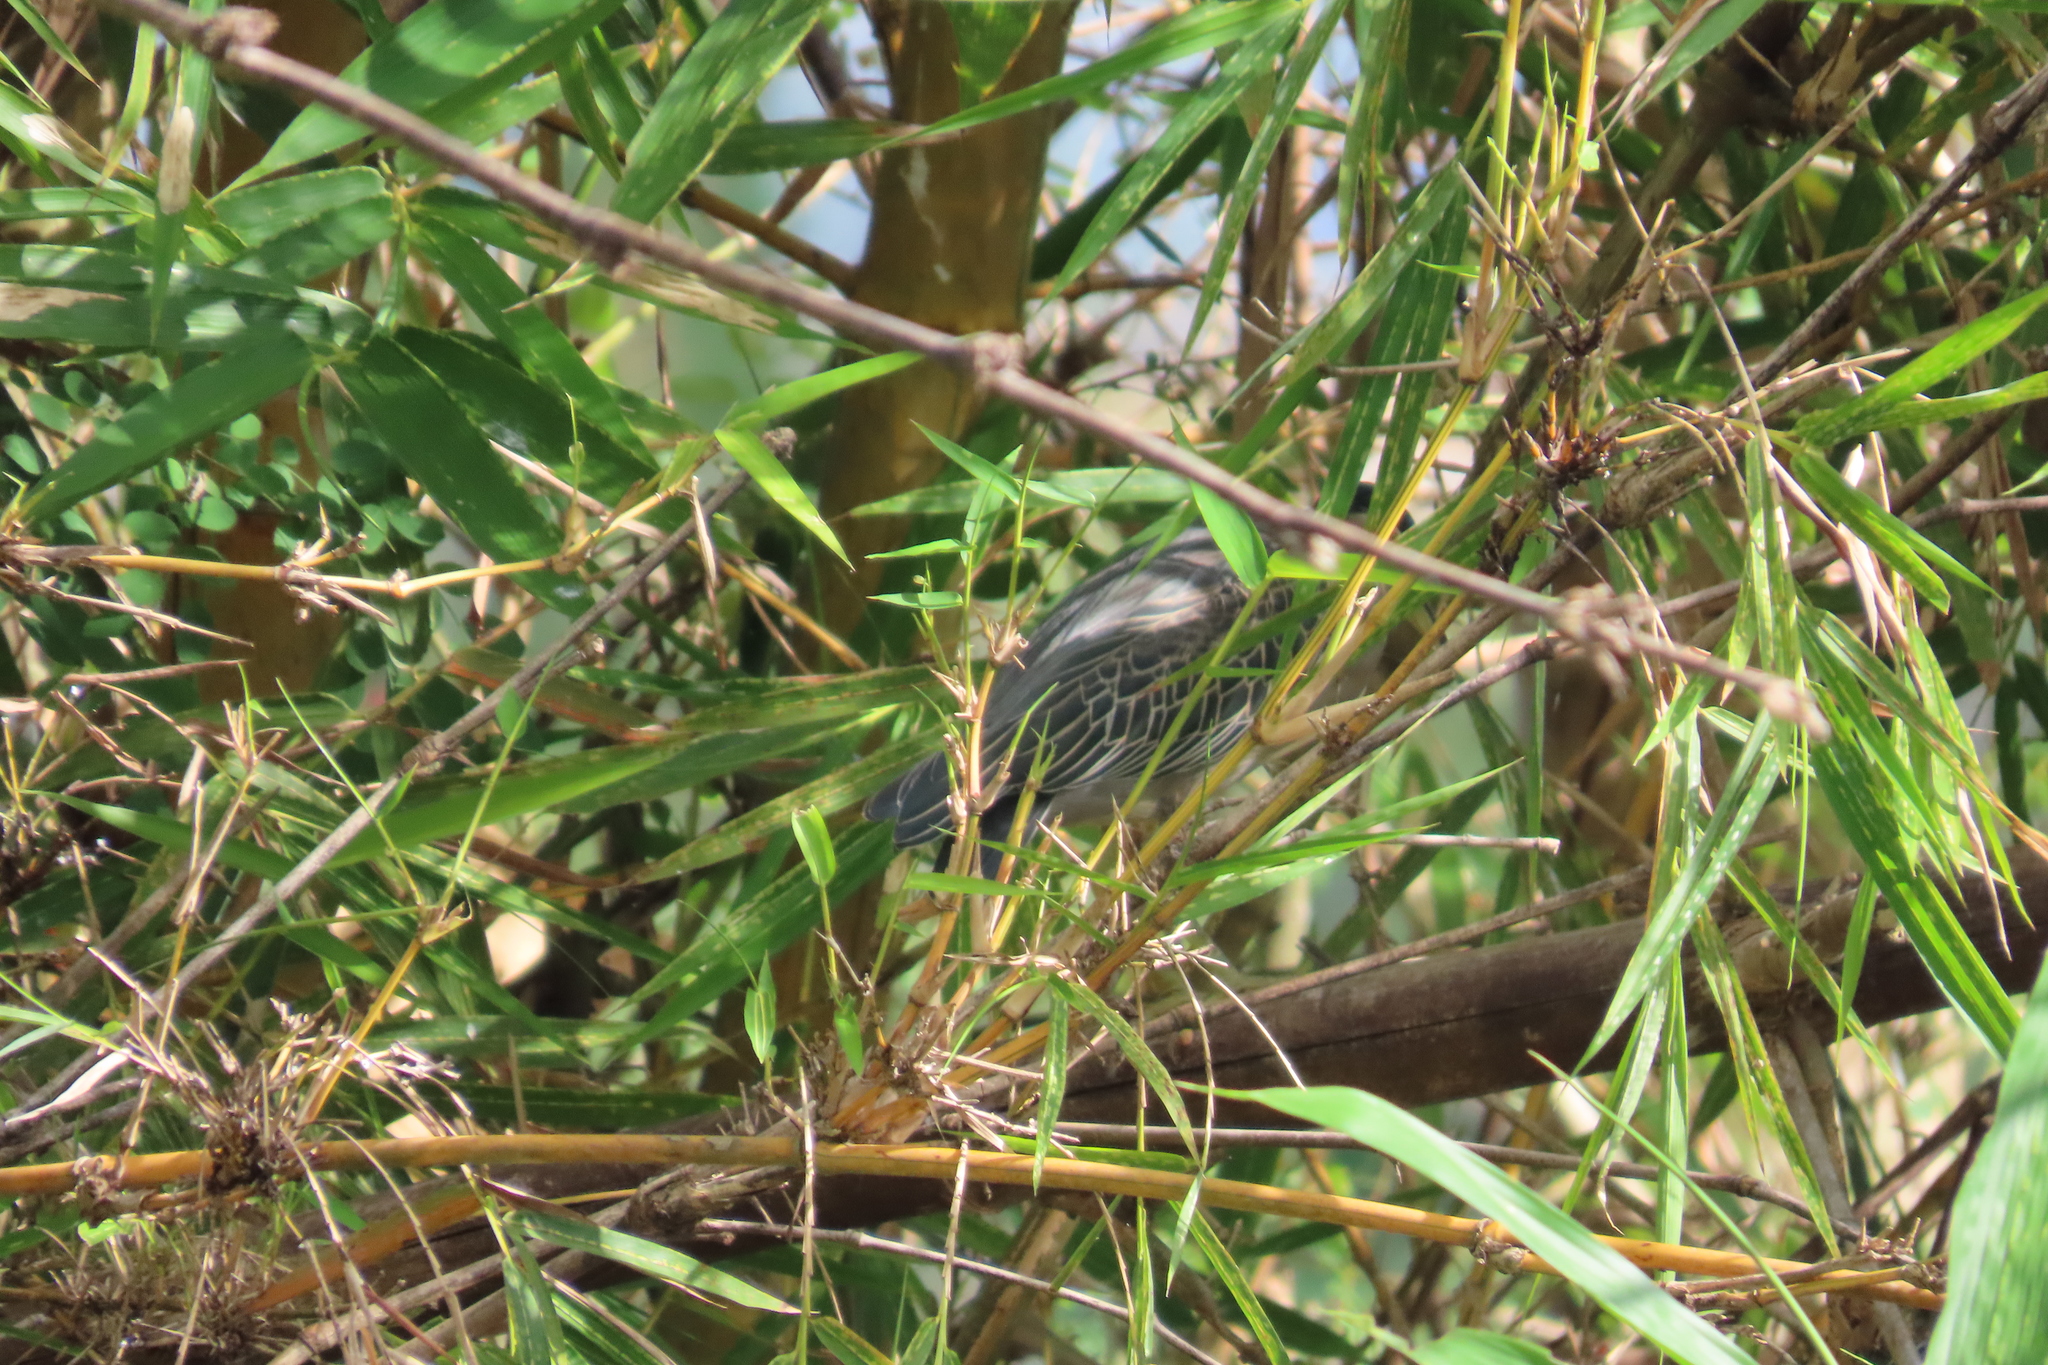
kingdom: Plantae
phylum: Tracheophyta
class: Liliopsida
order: Poales
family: Poaceae
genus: Bambusa
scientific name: Bambusa vulgaris
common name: Common bamboo
